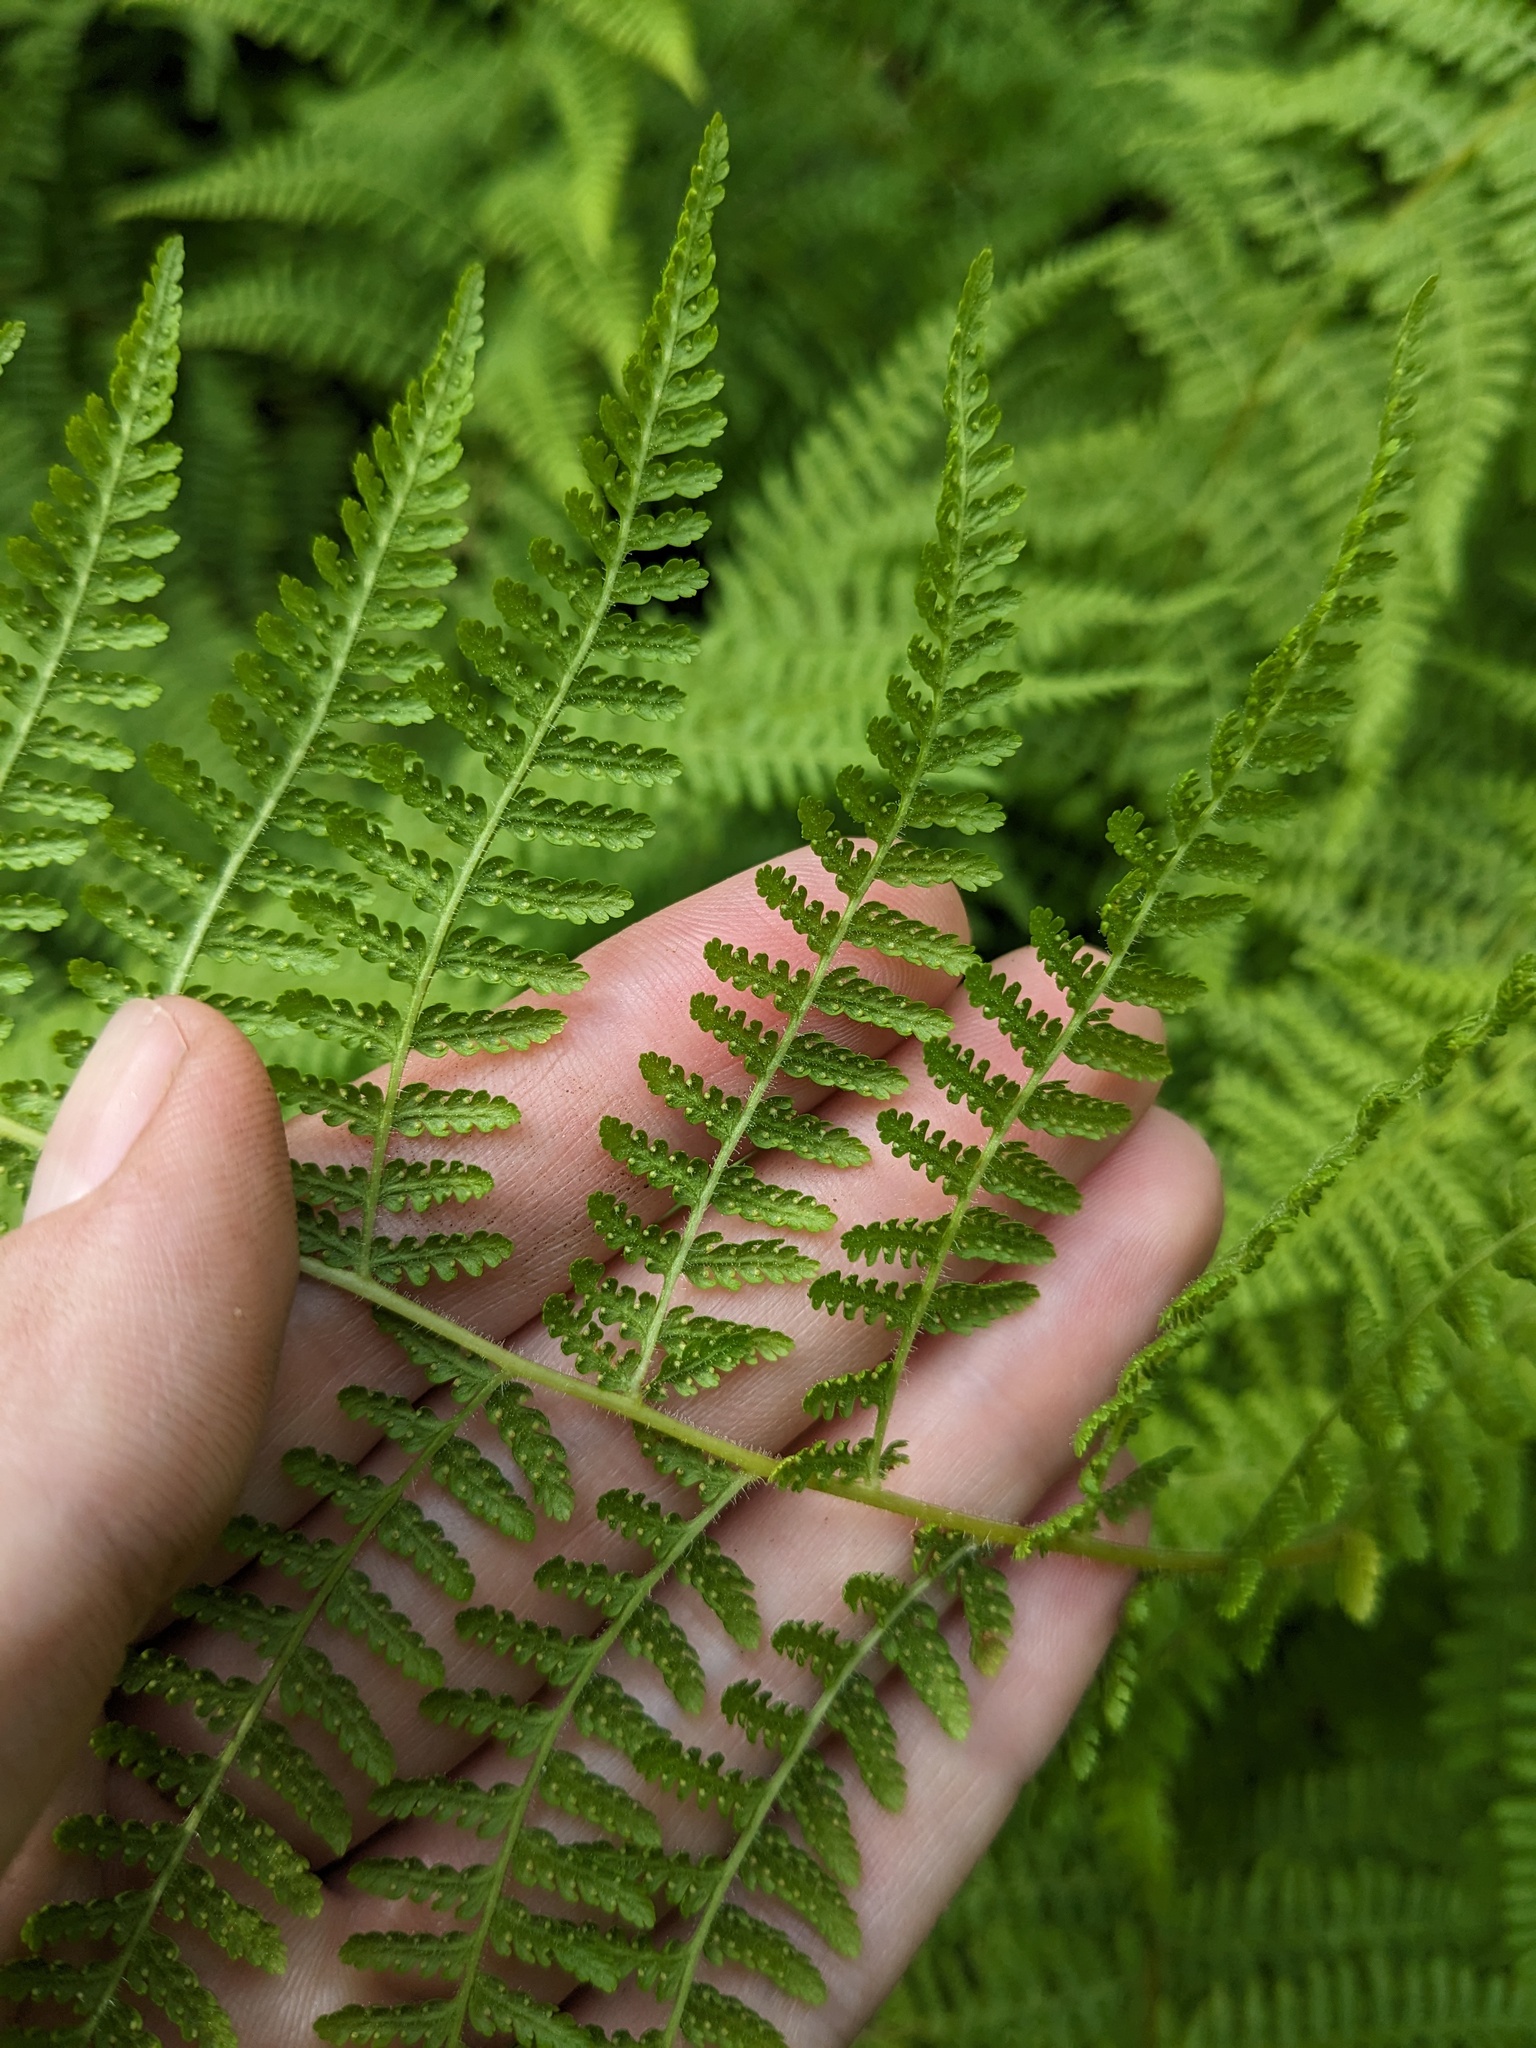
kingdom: Plantae
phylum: Tracheophyta
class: Polypodiopsida
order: Polypodiales
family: Dennstaedtiaceae
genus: Sitobolium
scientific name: Sitobolium punctilobum
